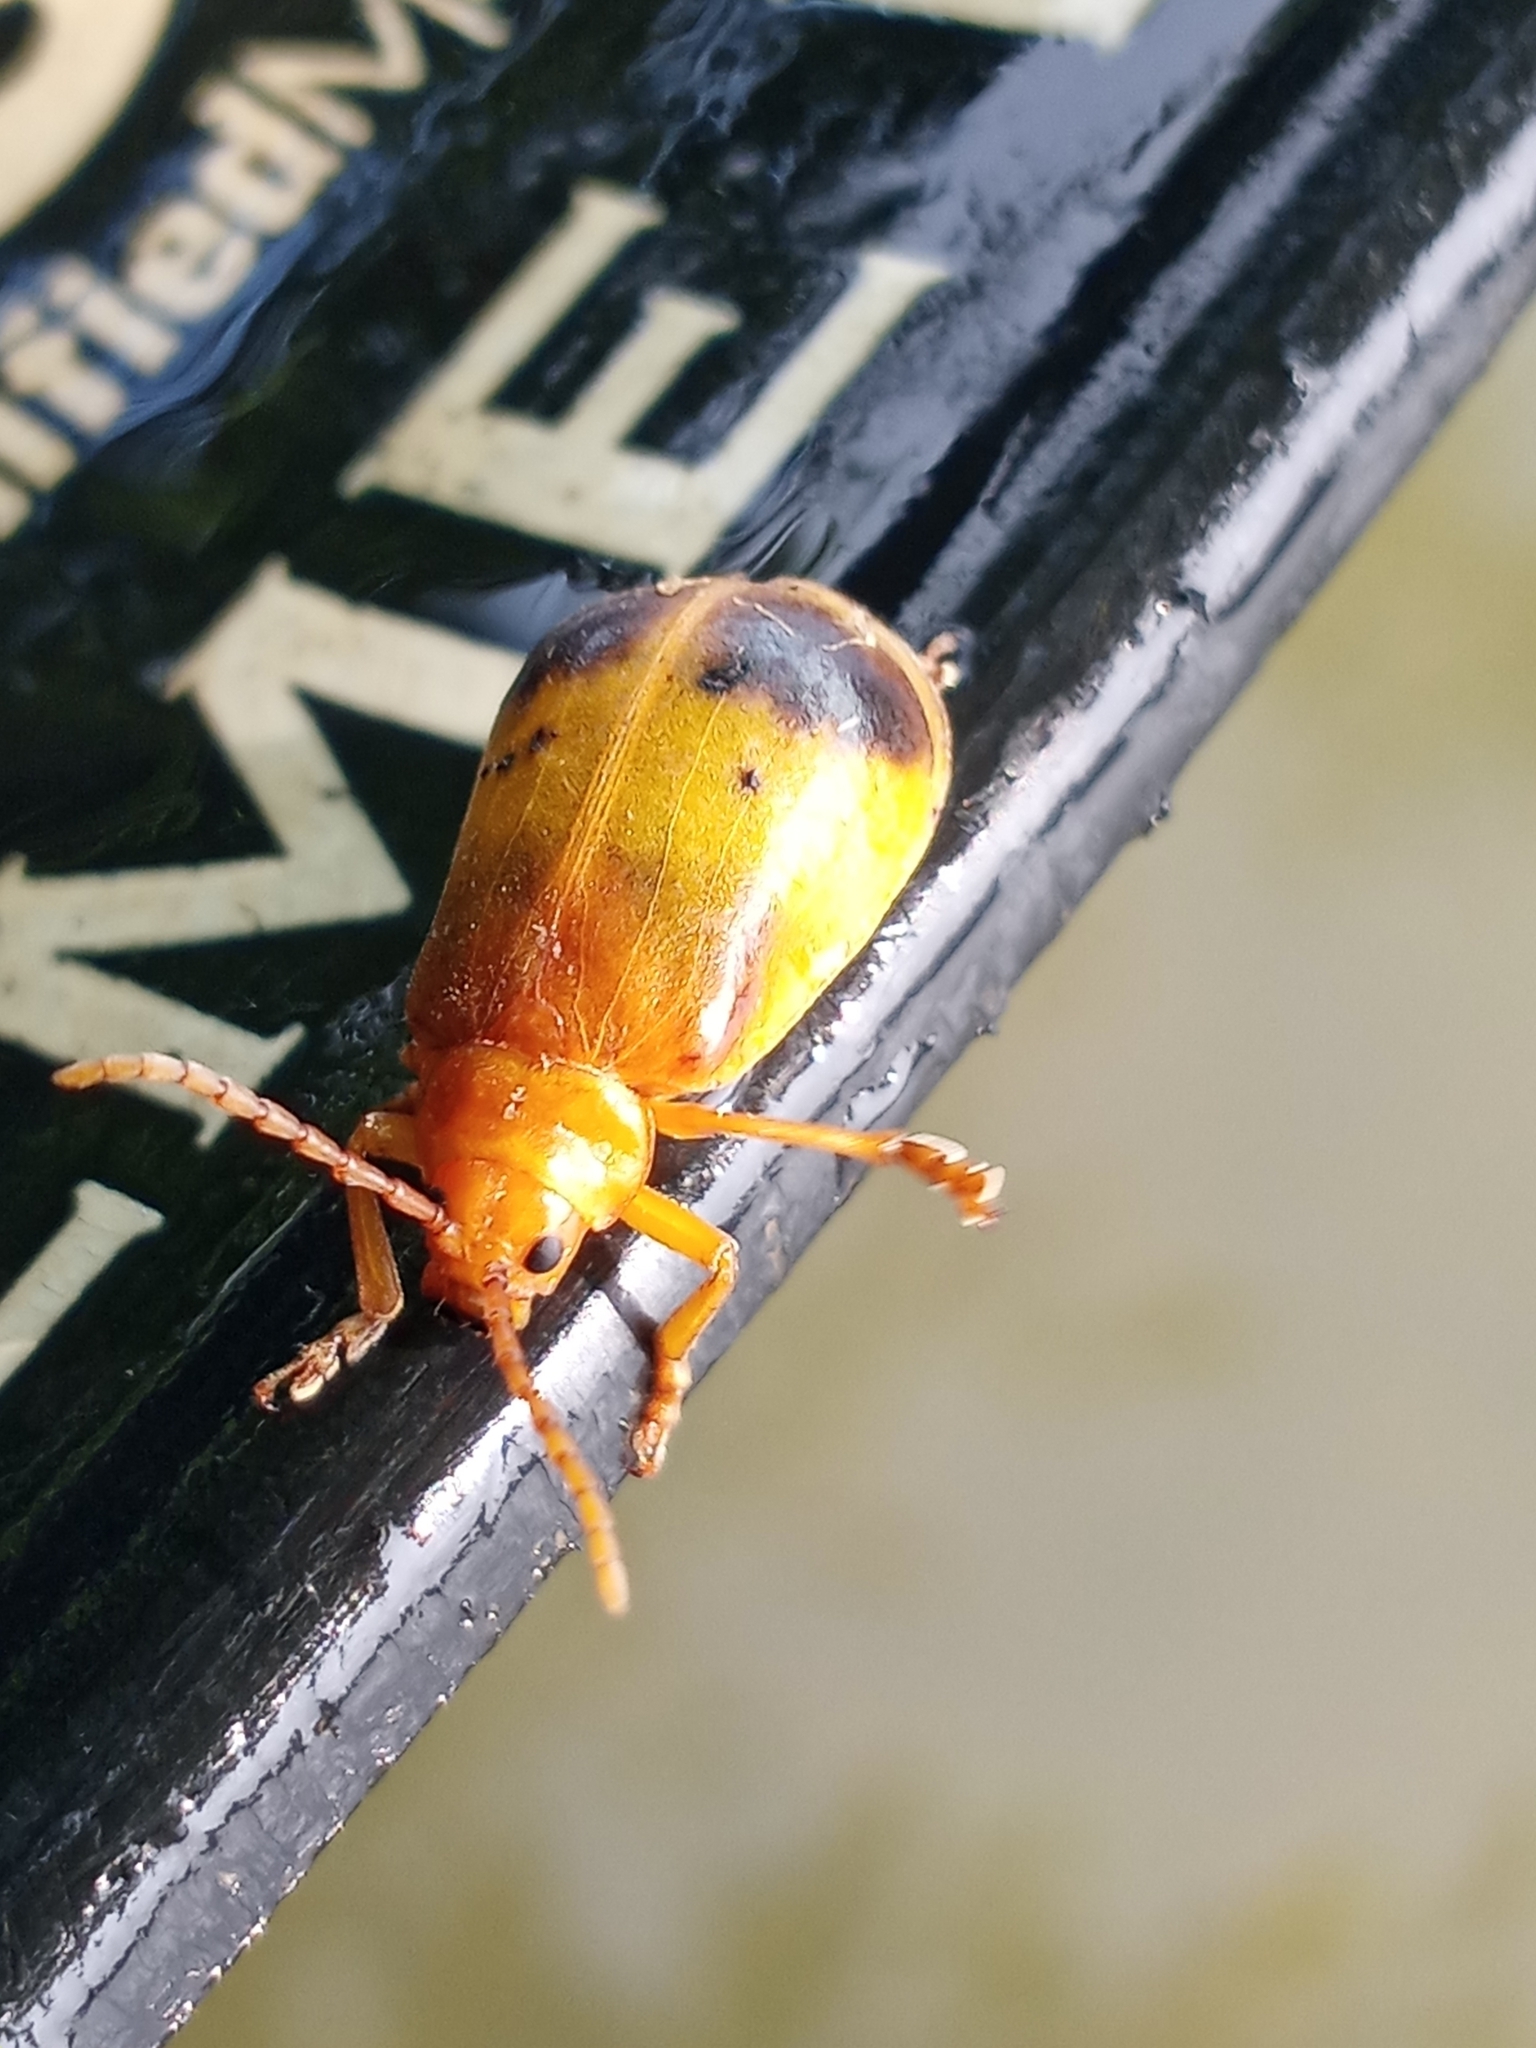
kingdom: Animalia
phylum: Arthropoda
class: Insecta
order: Coleoptera
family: Chrysomelidae
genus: Monocesta
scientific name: Monocesta coryli
